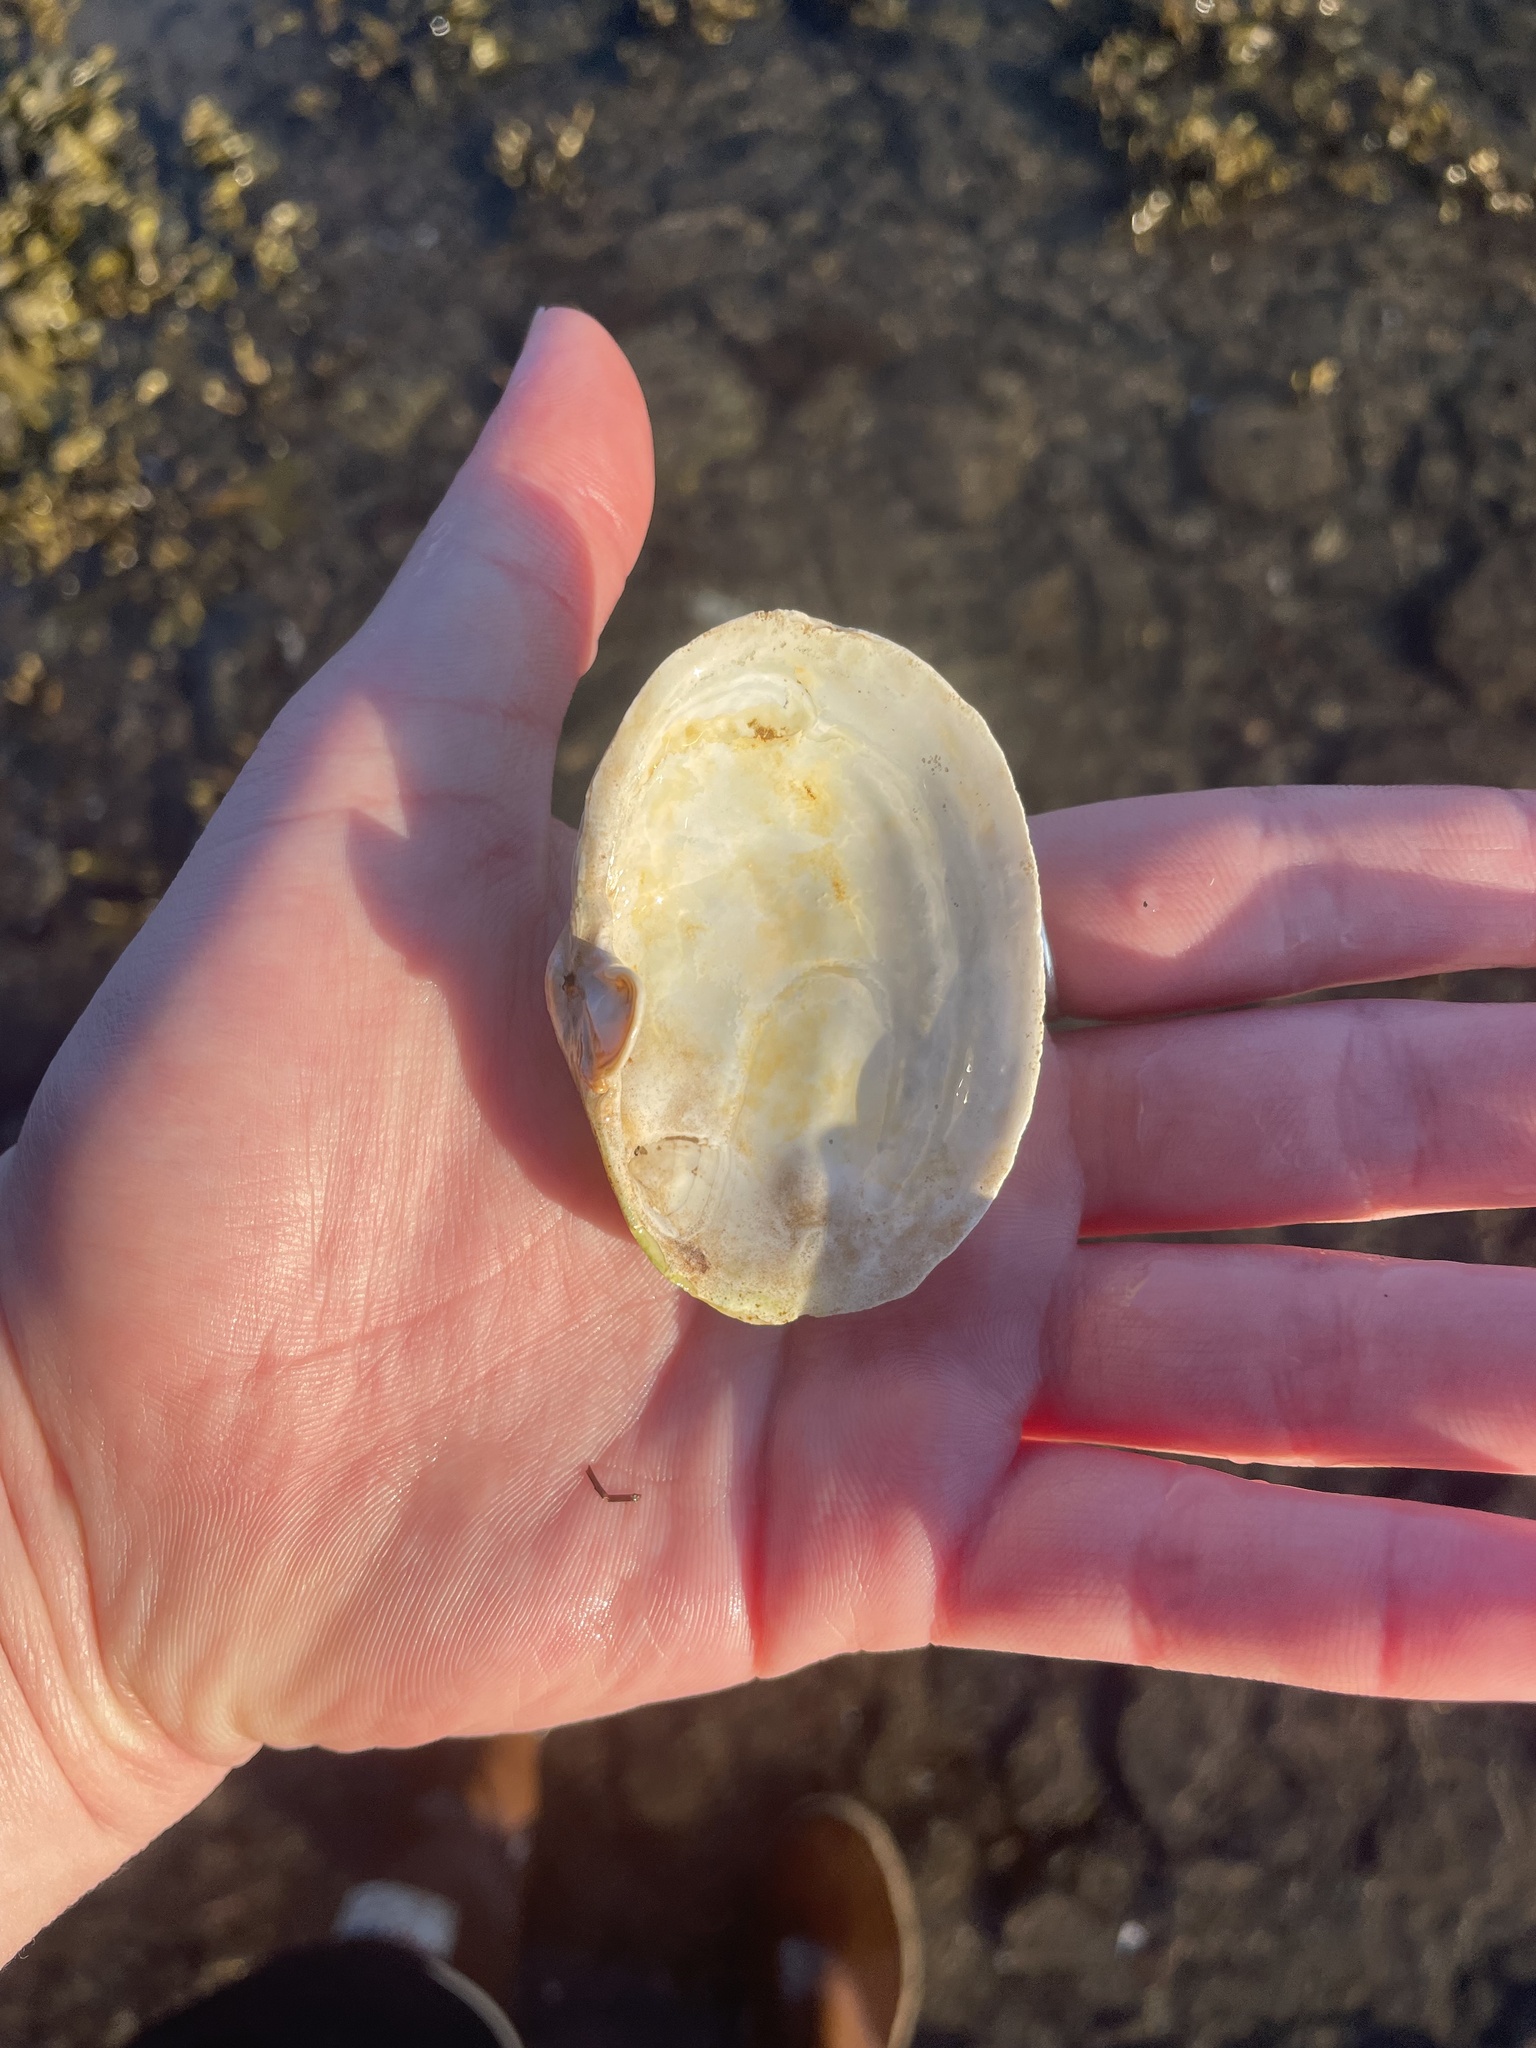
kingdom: Animalia
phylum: Mollusca
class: Bivalvia
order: Myida
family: Myidae
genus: Mya
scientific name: Mya arenaria
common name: Soft-shelled clam
